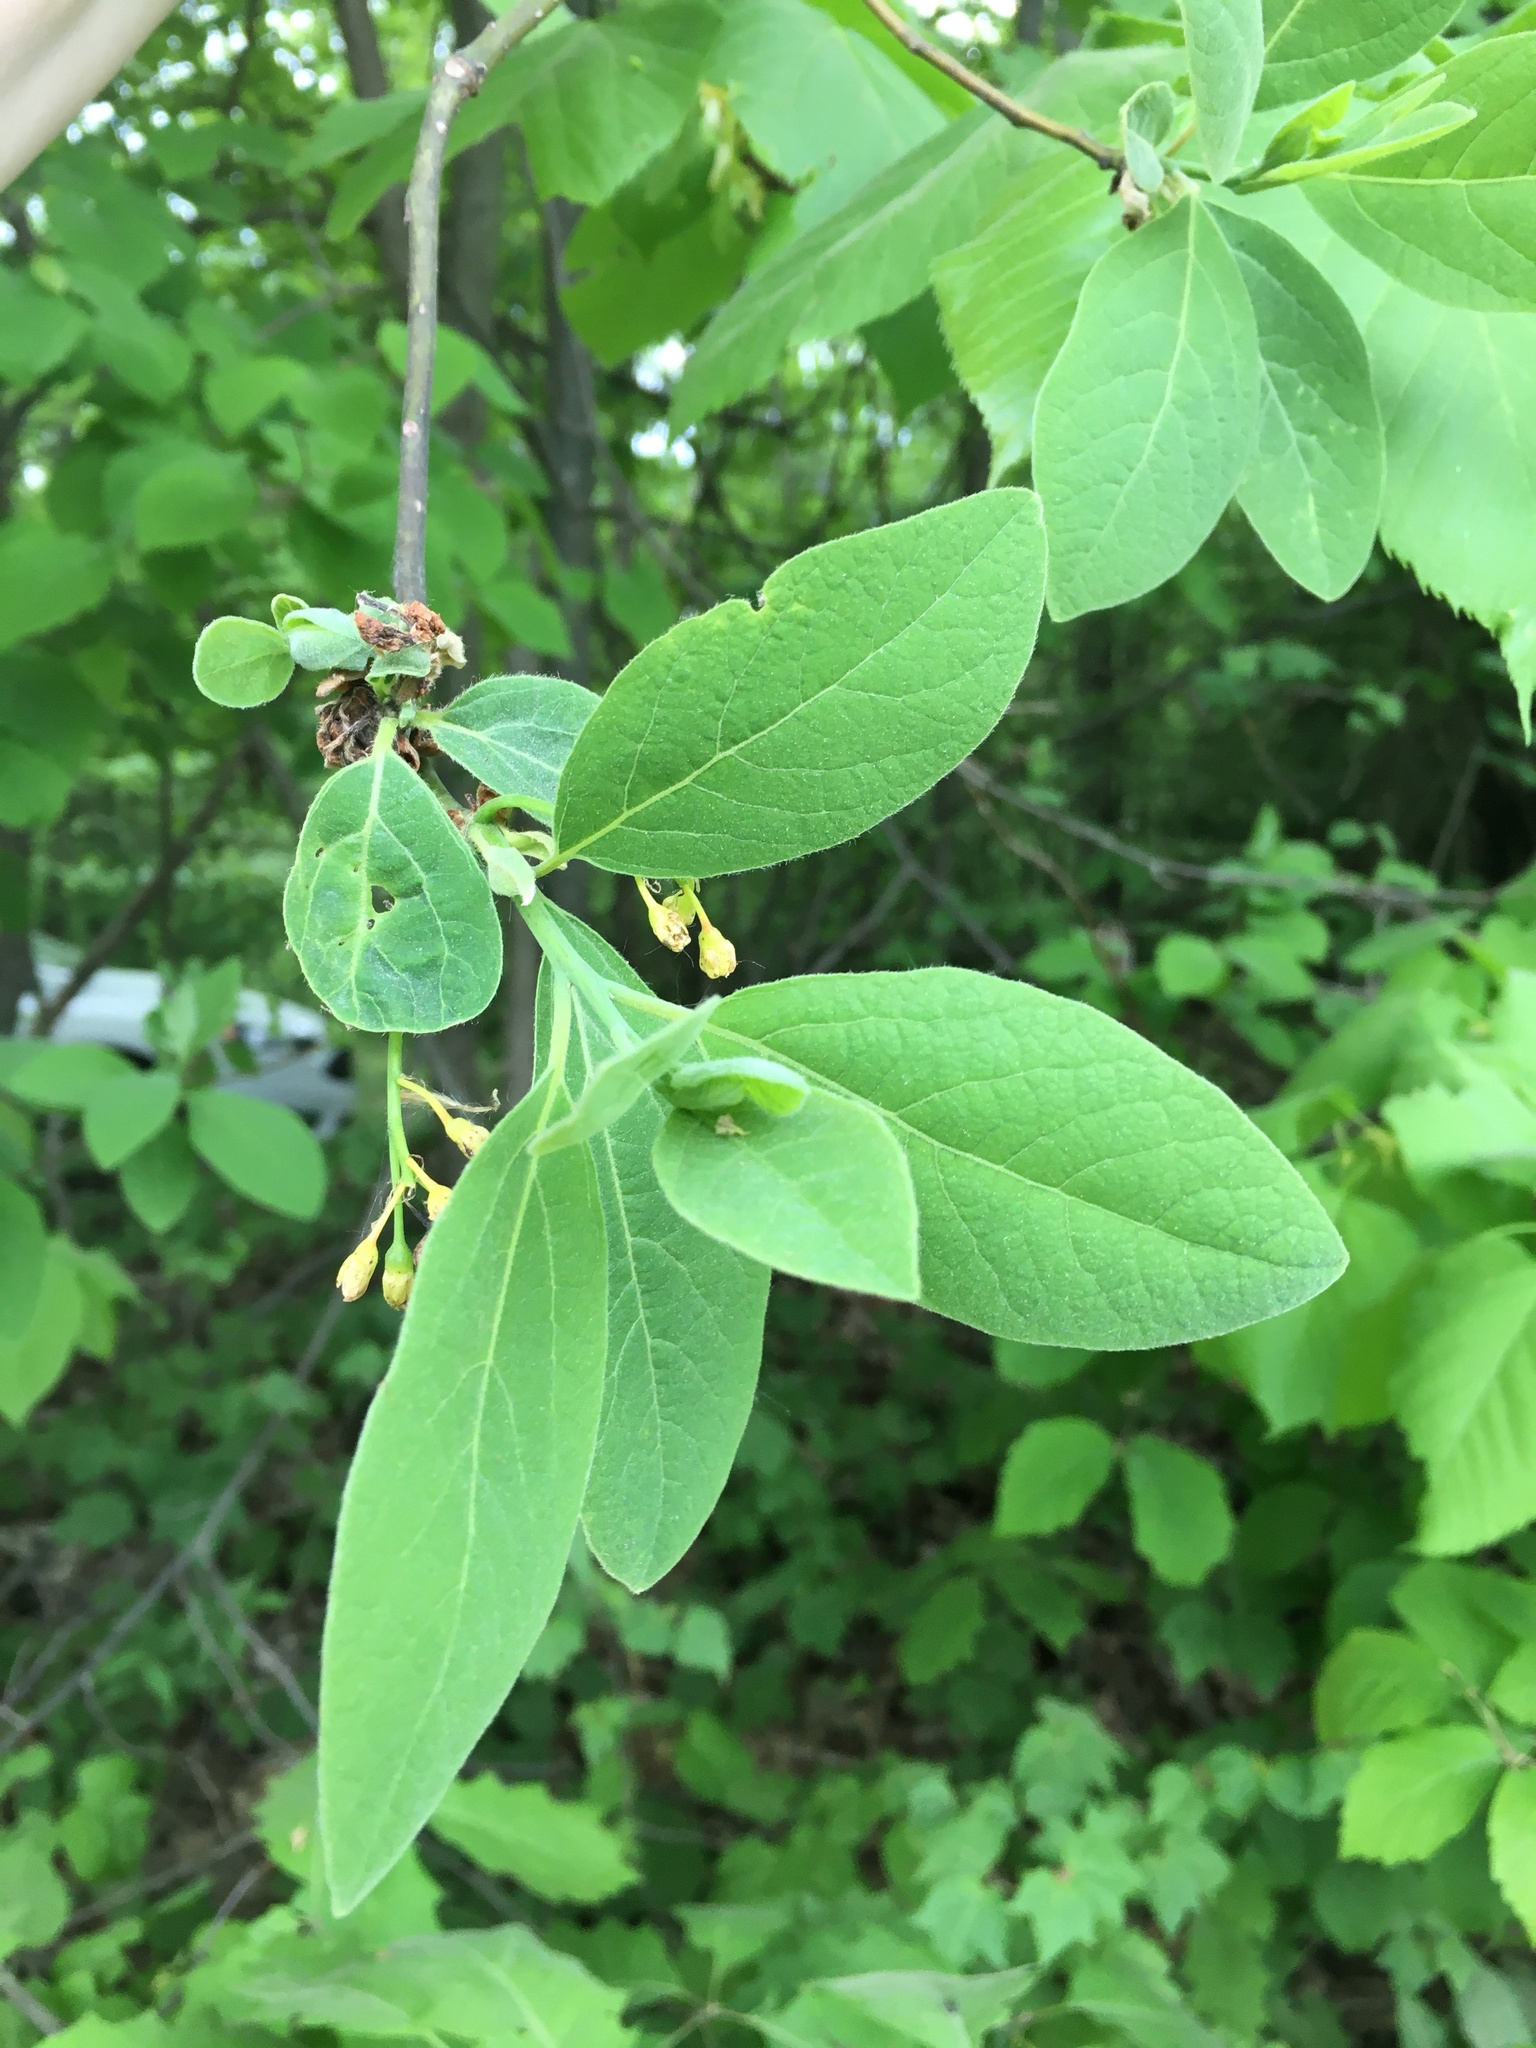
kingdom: Plantae
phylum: Tracheophyta
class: Magnoliopsida
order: Laurales
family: Lauraceae
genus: Sassafras
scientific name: Sassafras albidum
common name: Sassafras
